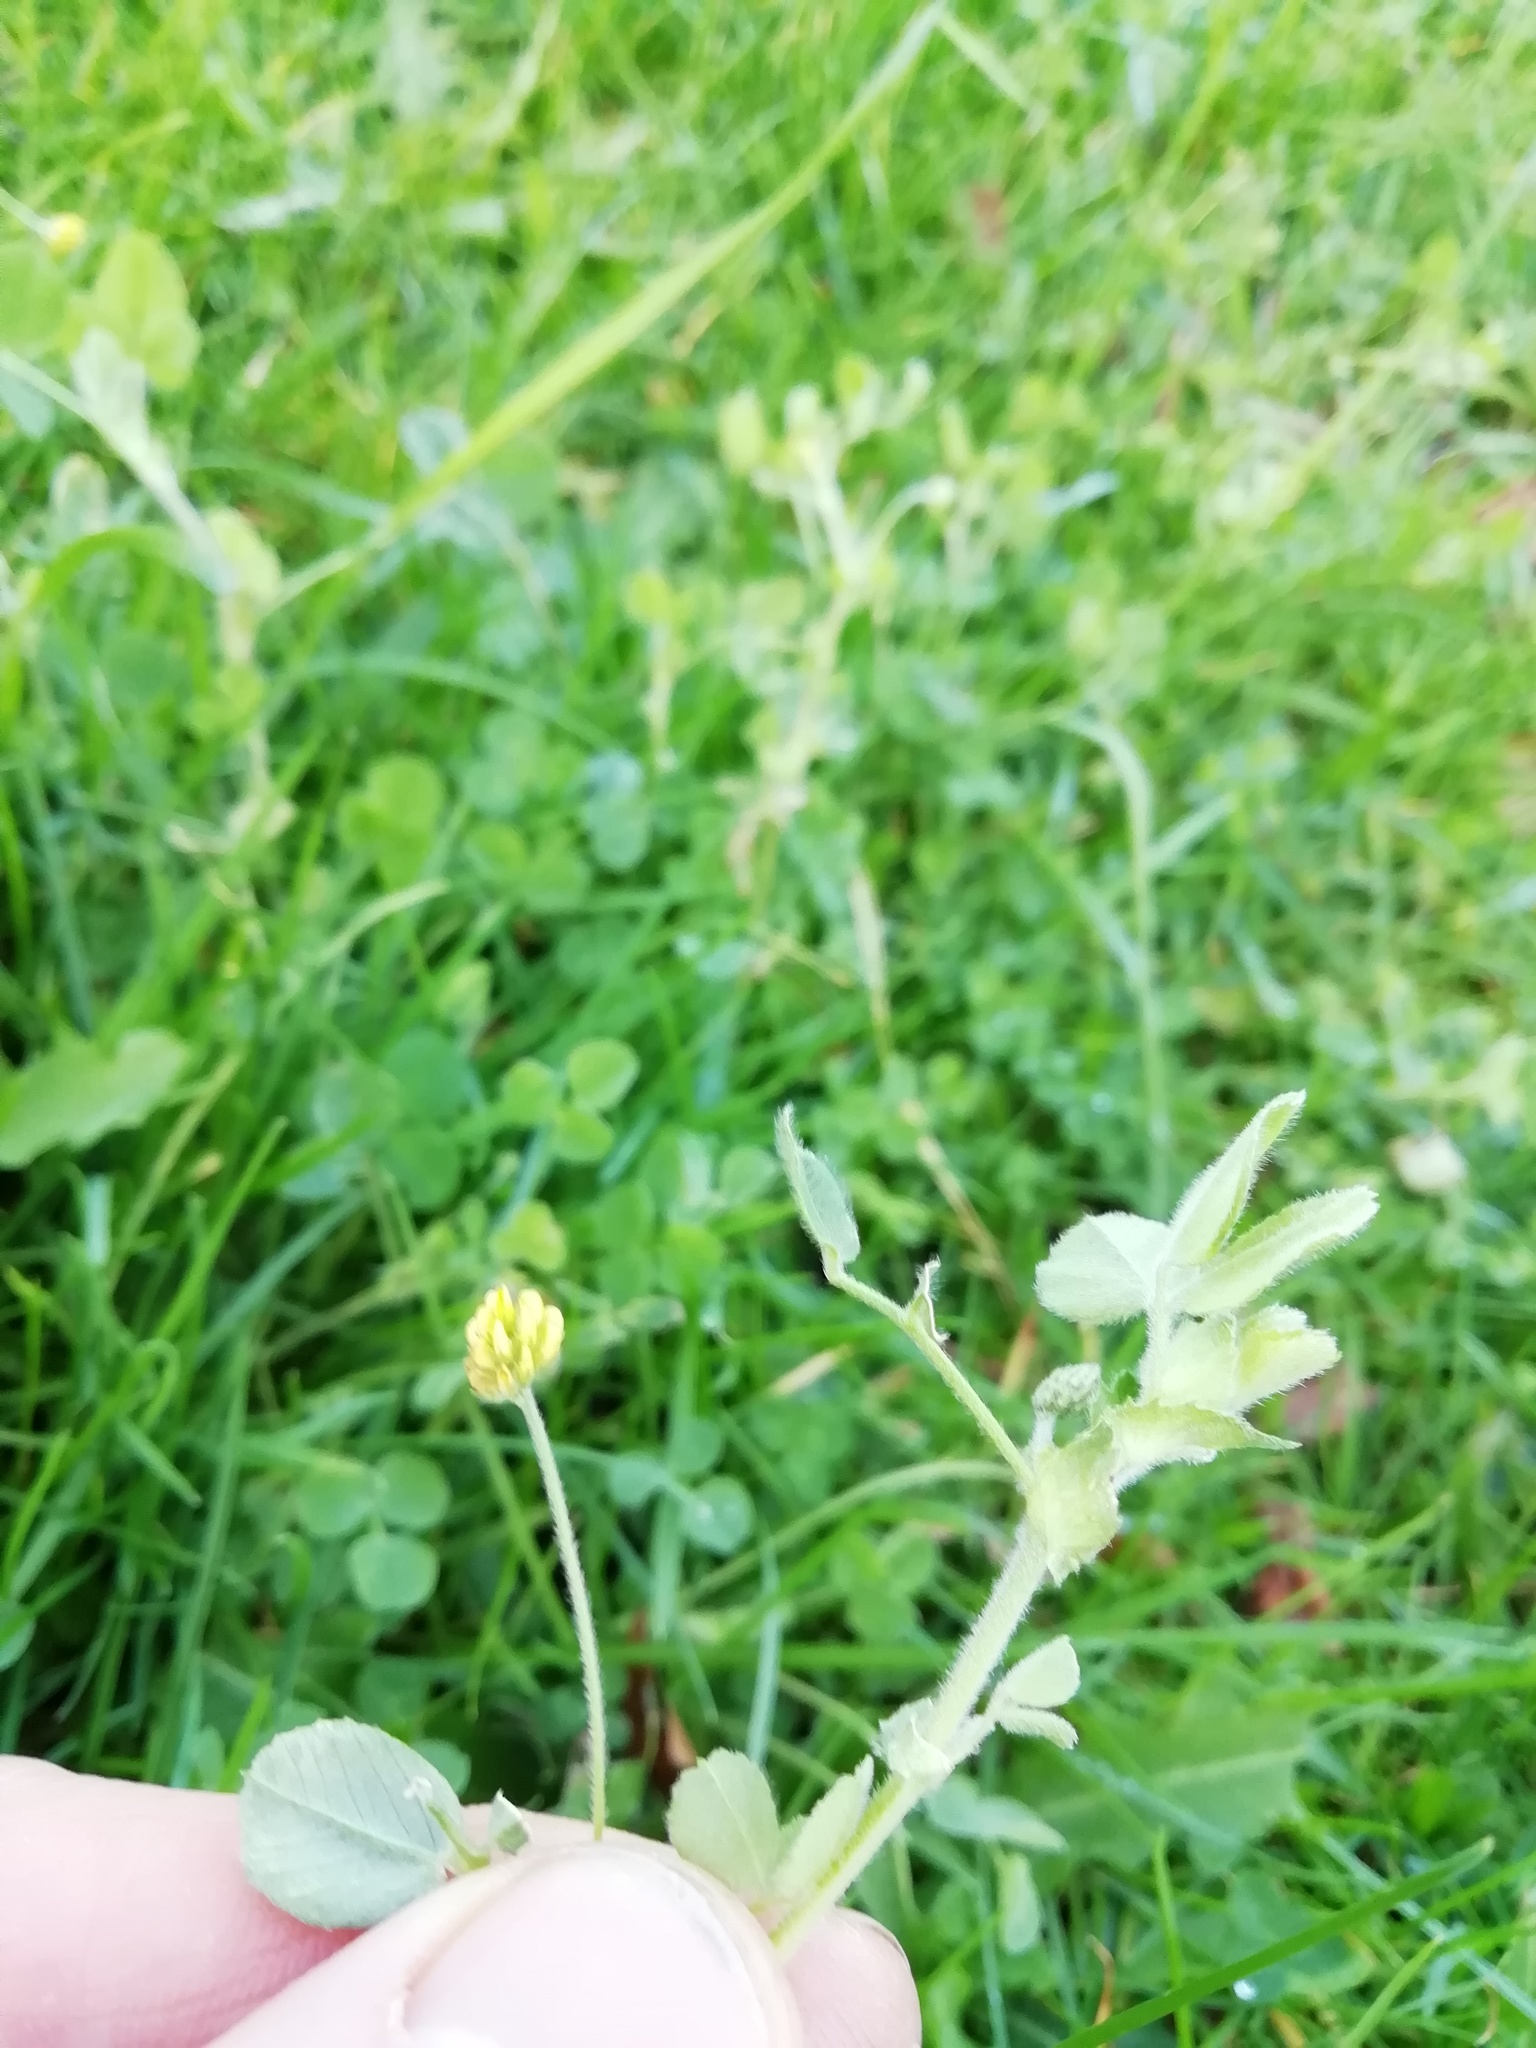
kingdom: Plantae
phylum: Tracheophyta
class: Magnoliopsida
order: Fabales
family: Fabaceae
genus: Medicago
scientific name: Medicago lupulina
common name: Black medick
